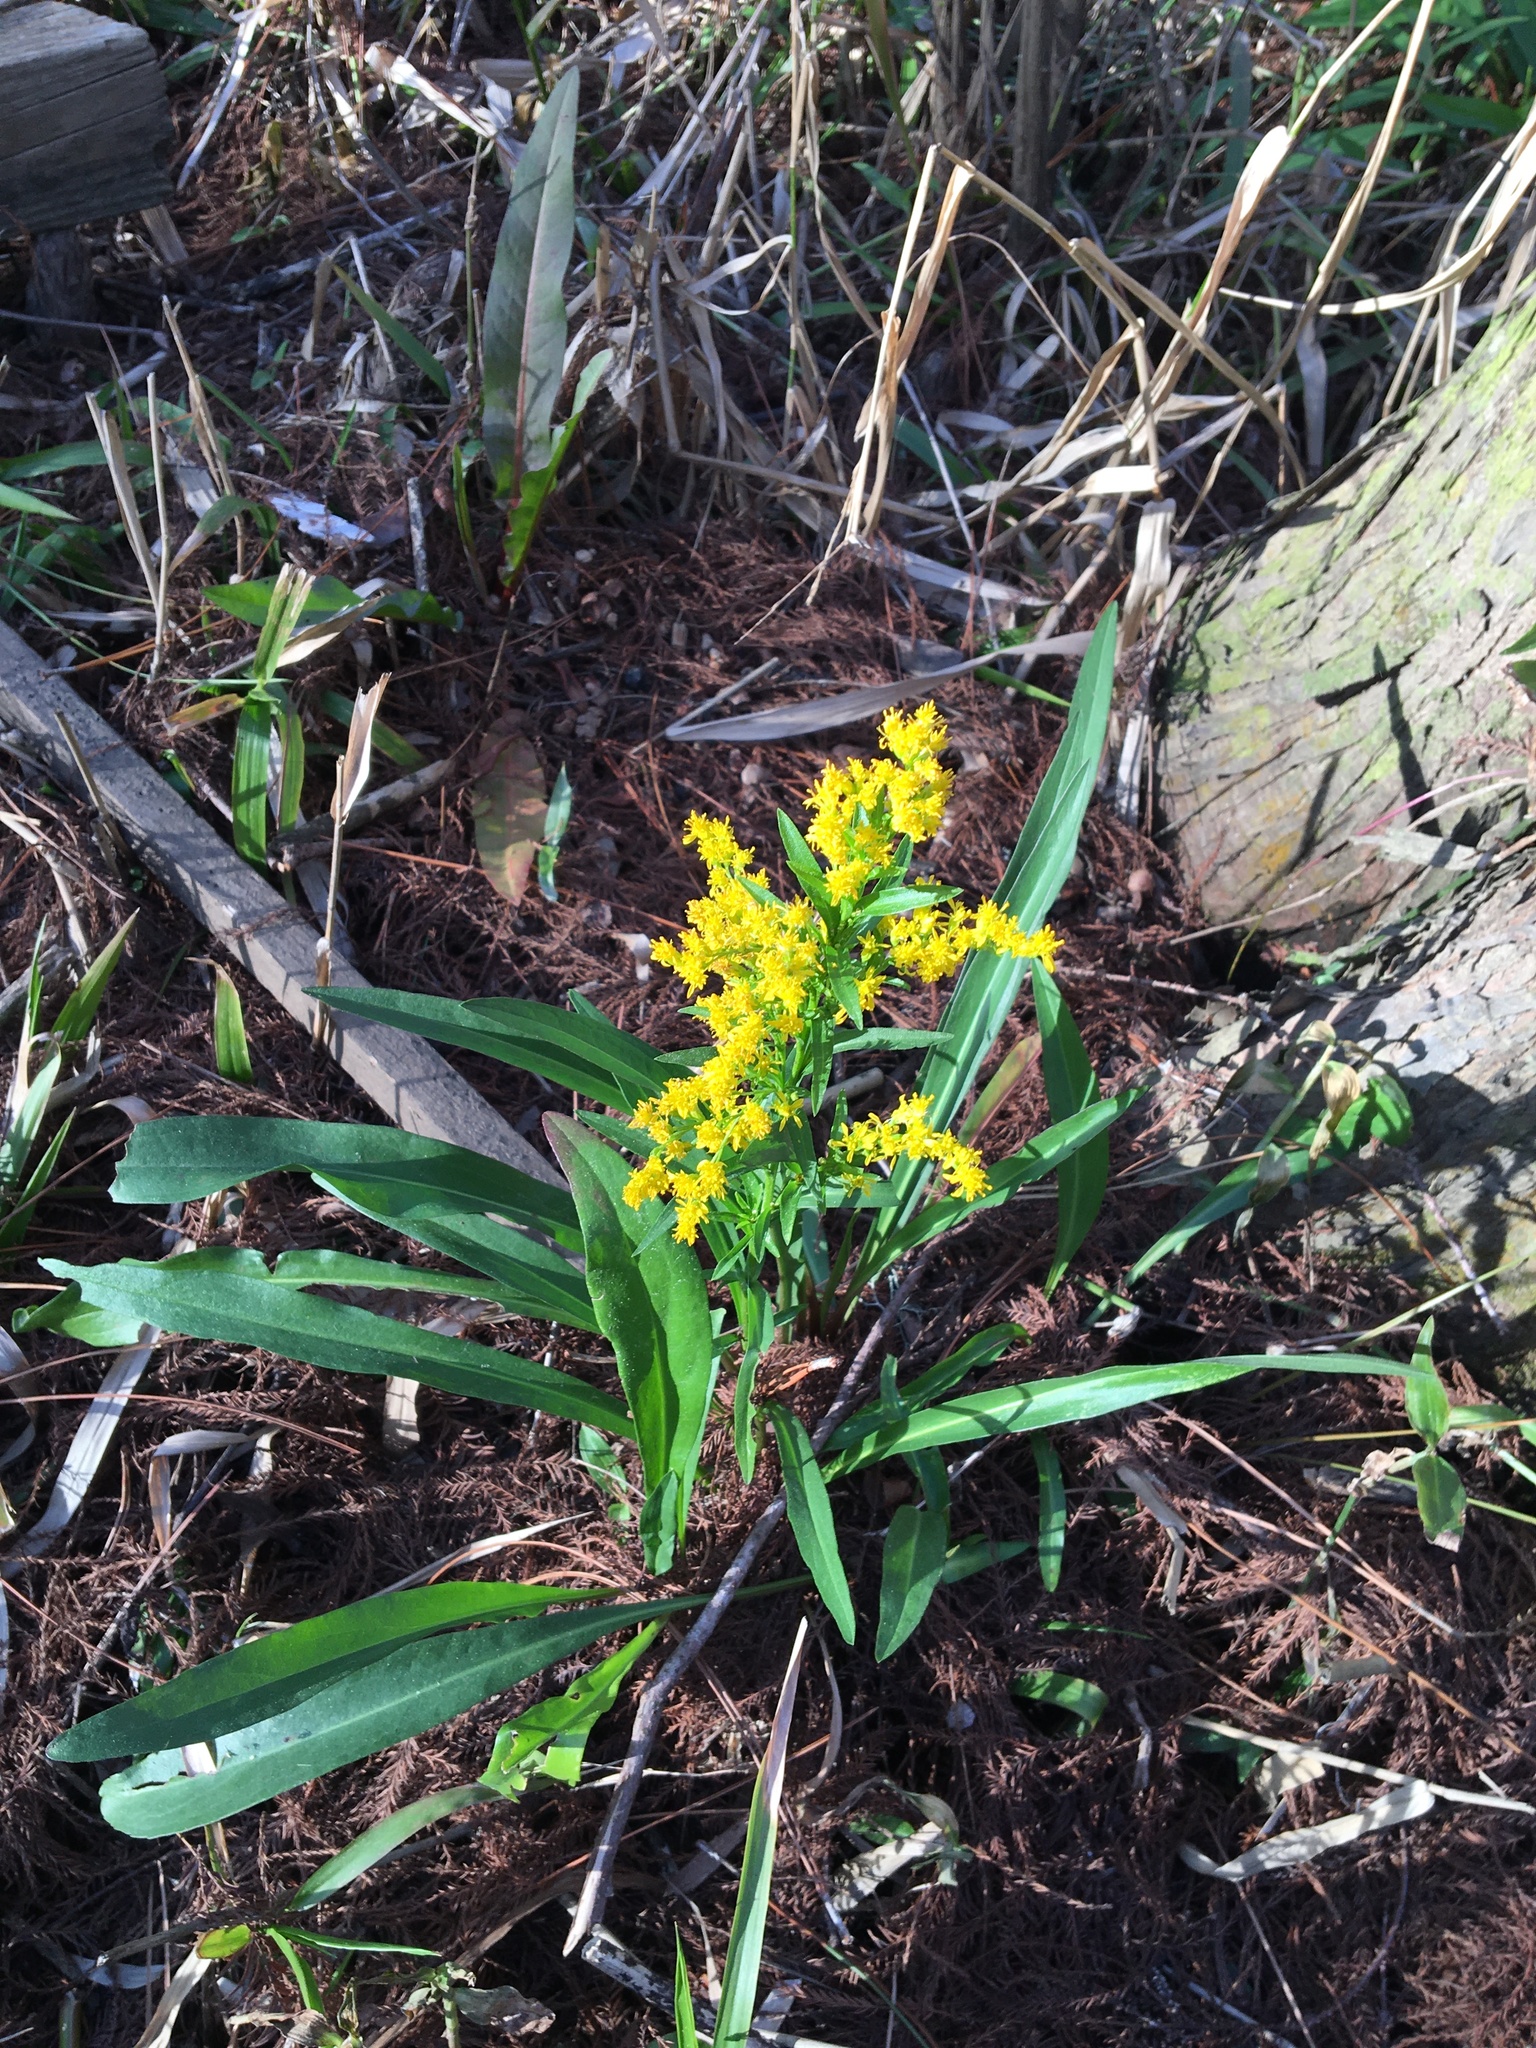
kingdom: Plantae
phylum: Tracheophyta
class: Magnoliopsida
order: Asterales
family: Asteraceae
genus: Solidago
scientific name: Solidago mexicana
